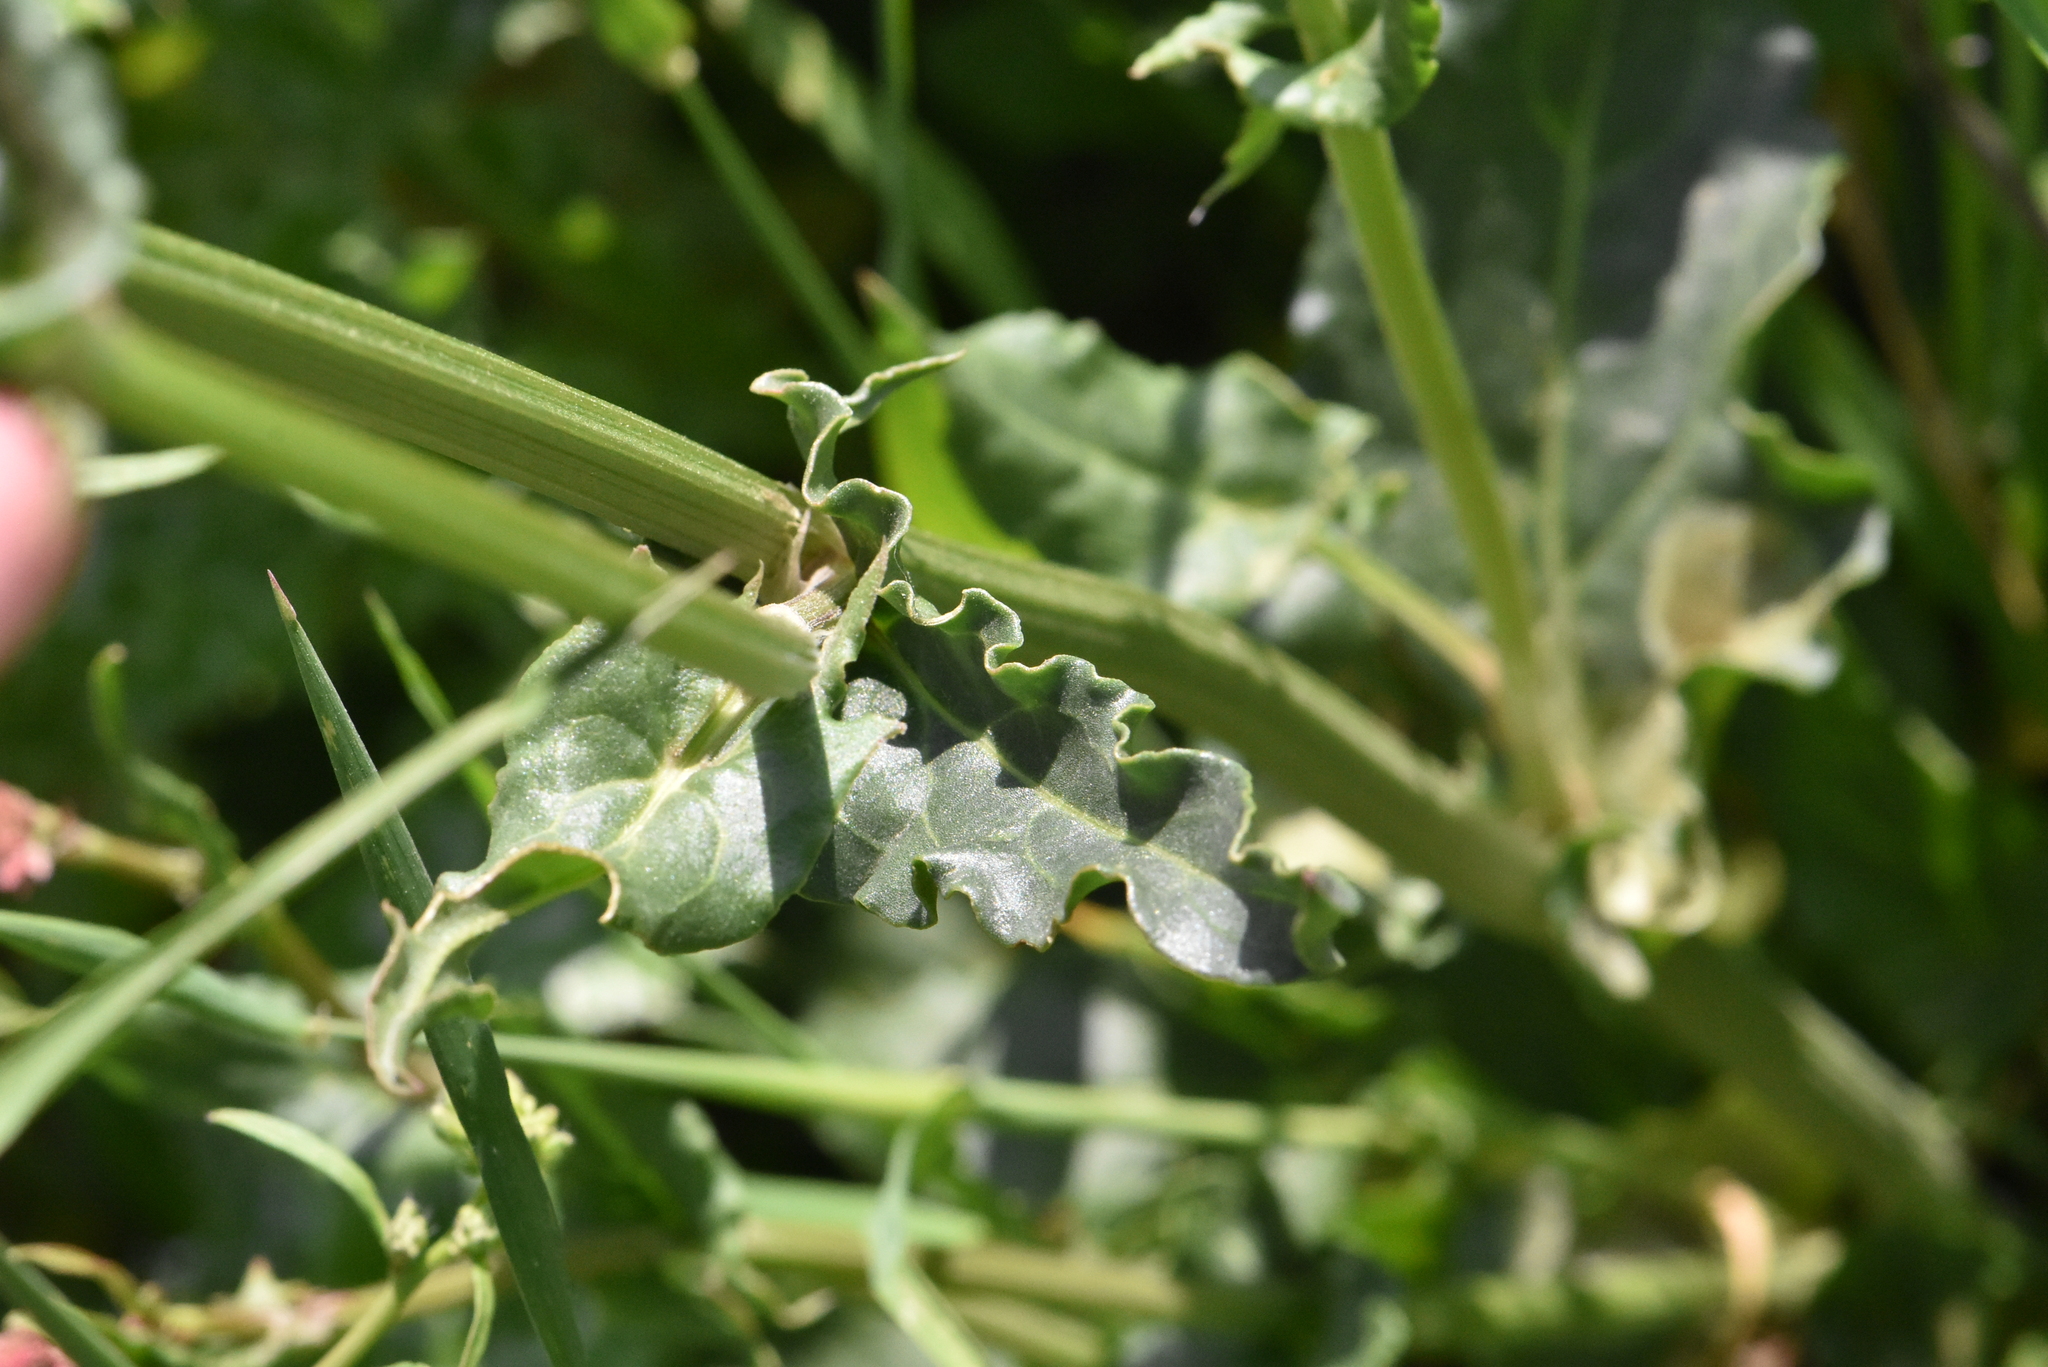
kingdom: Plantae
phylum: Tracheophyta
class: Magnoliopsida
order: Caryophyllales
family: Polygonaceae
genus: Rumex
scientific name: Rumex acetosa
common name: Garden sorrel
